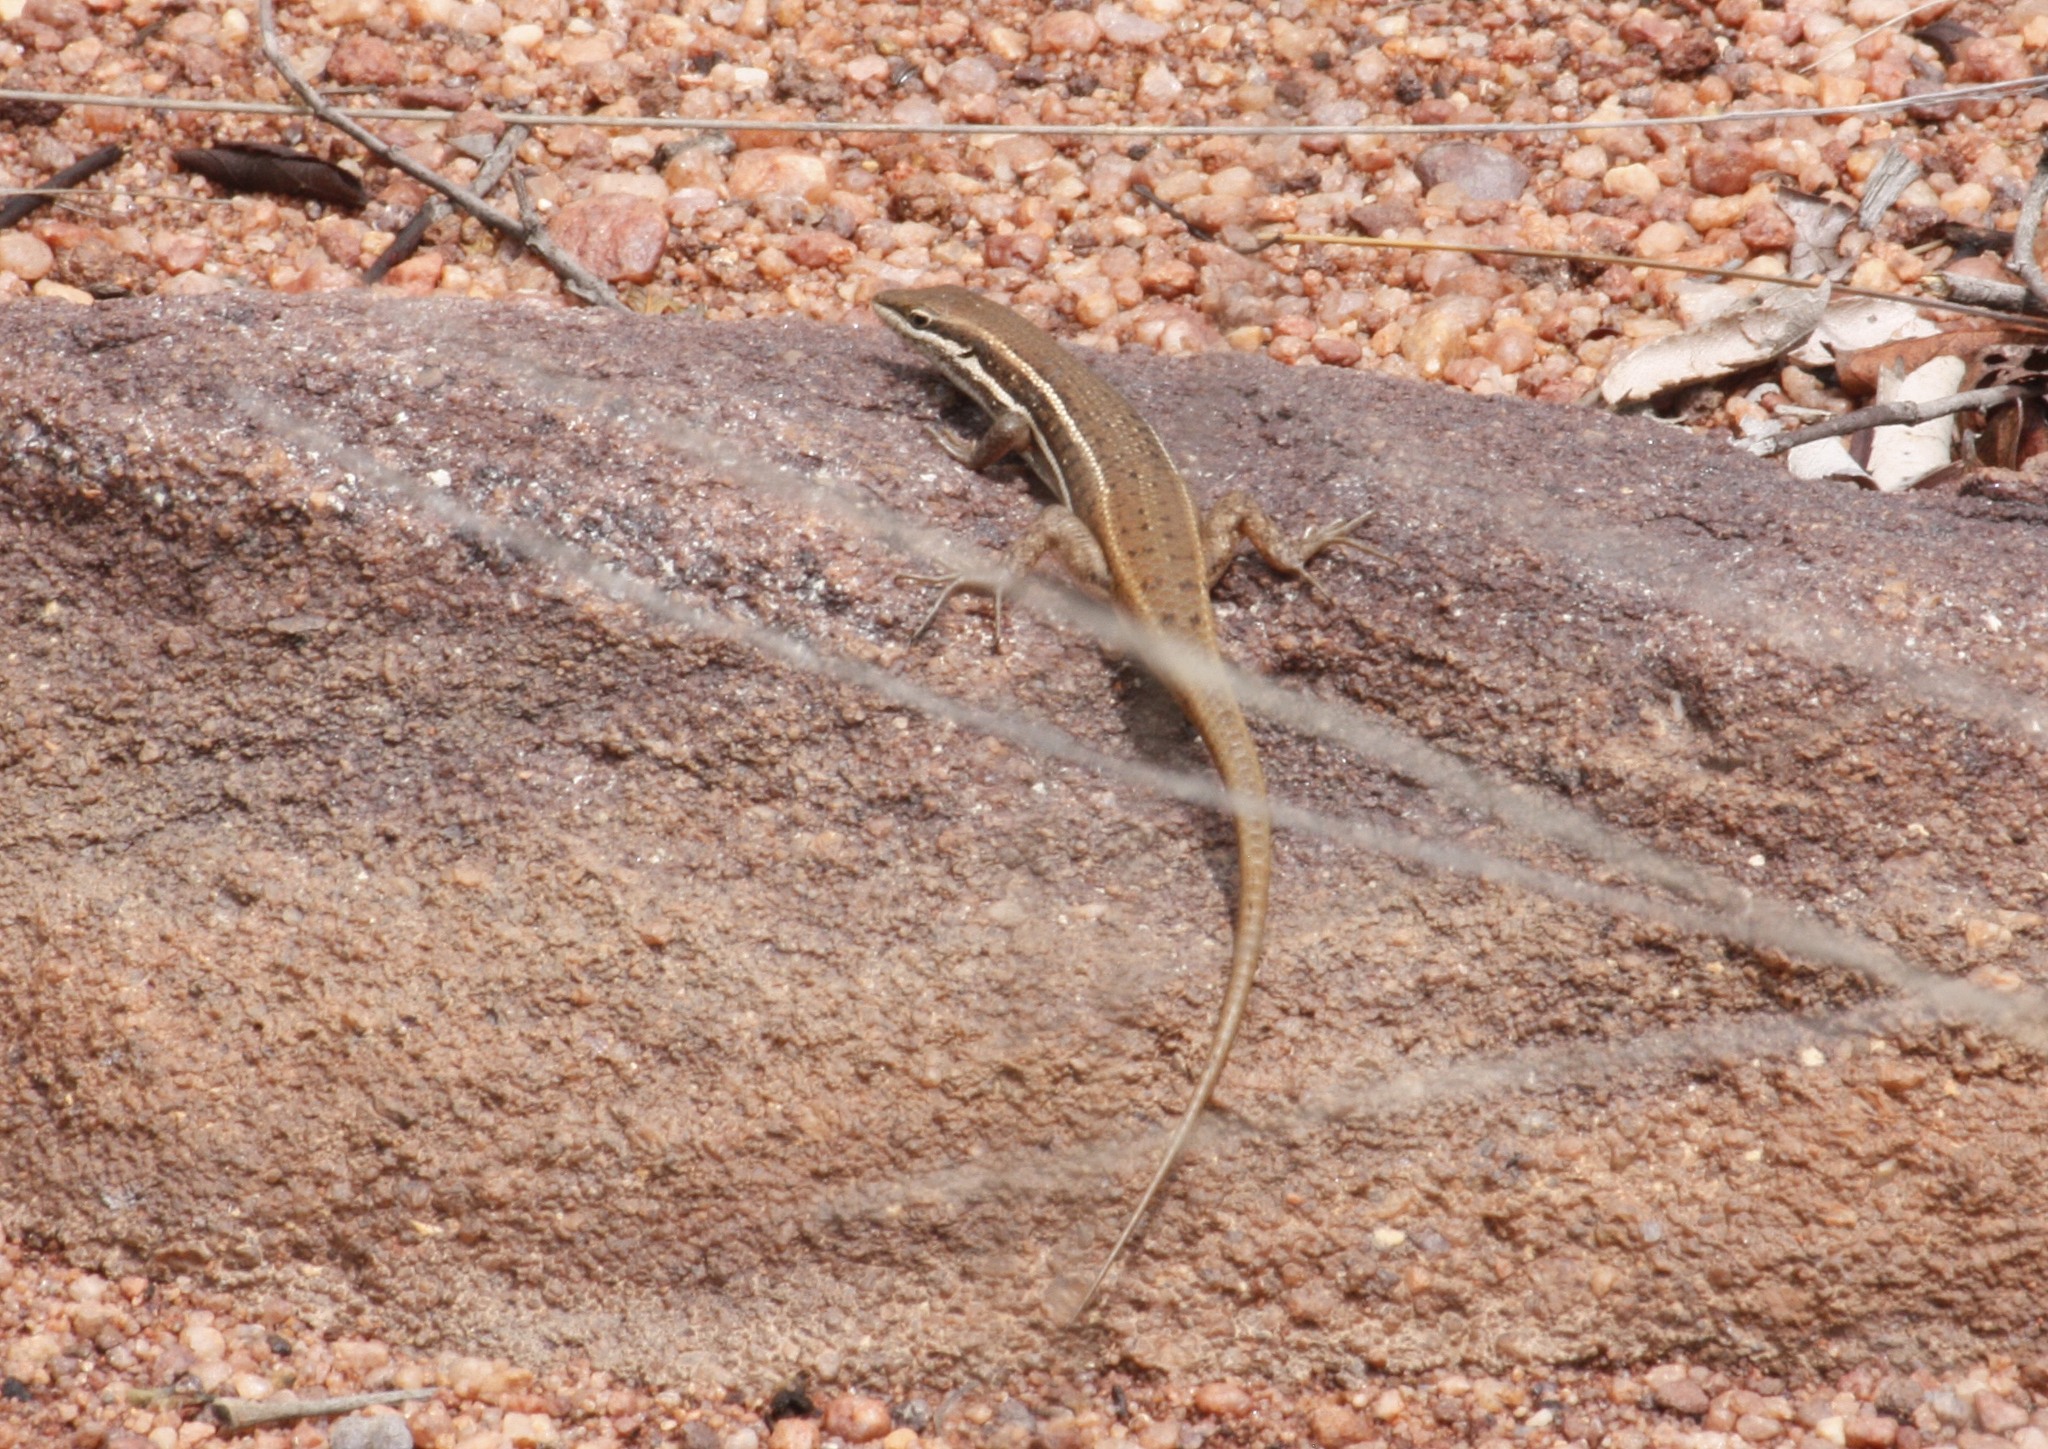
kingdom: Animalia
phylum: Chordata
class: Squamata
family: Scincidae
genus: Trachylepis
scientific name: Trachylepis varia
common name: Eastern variable skink
